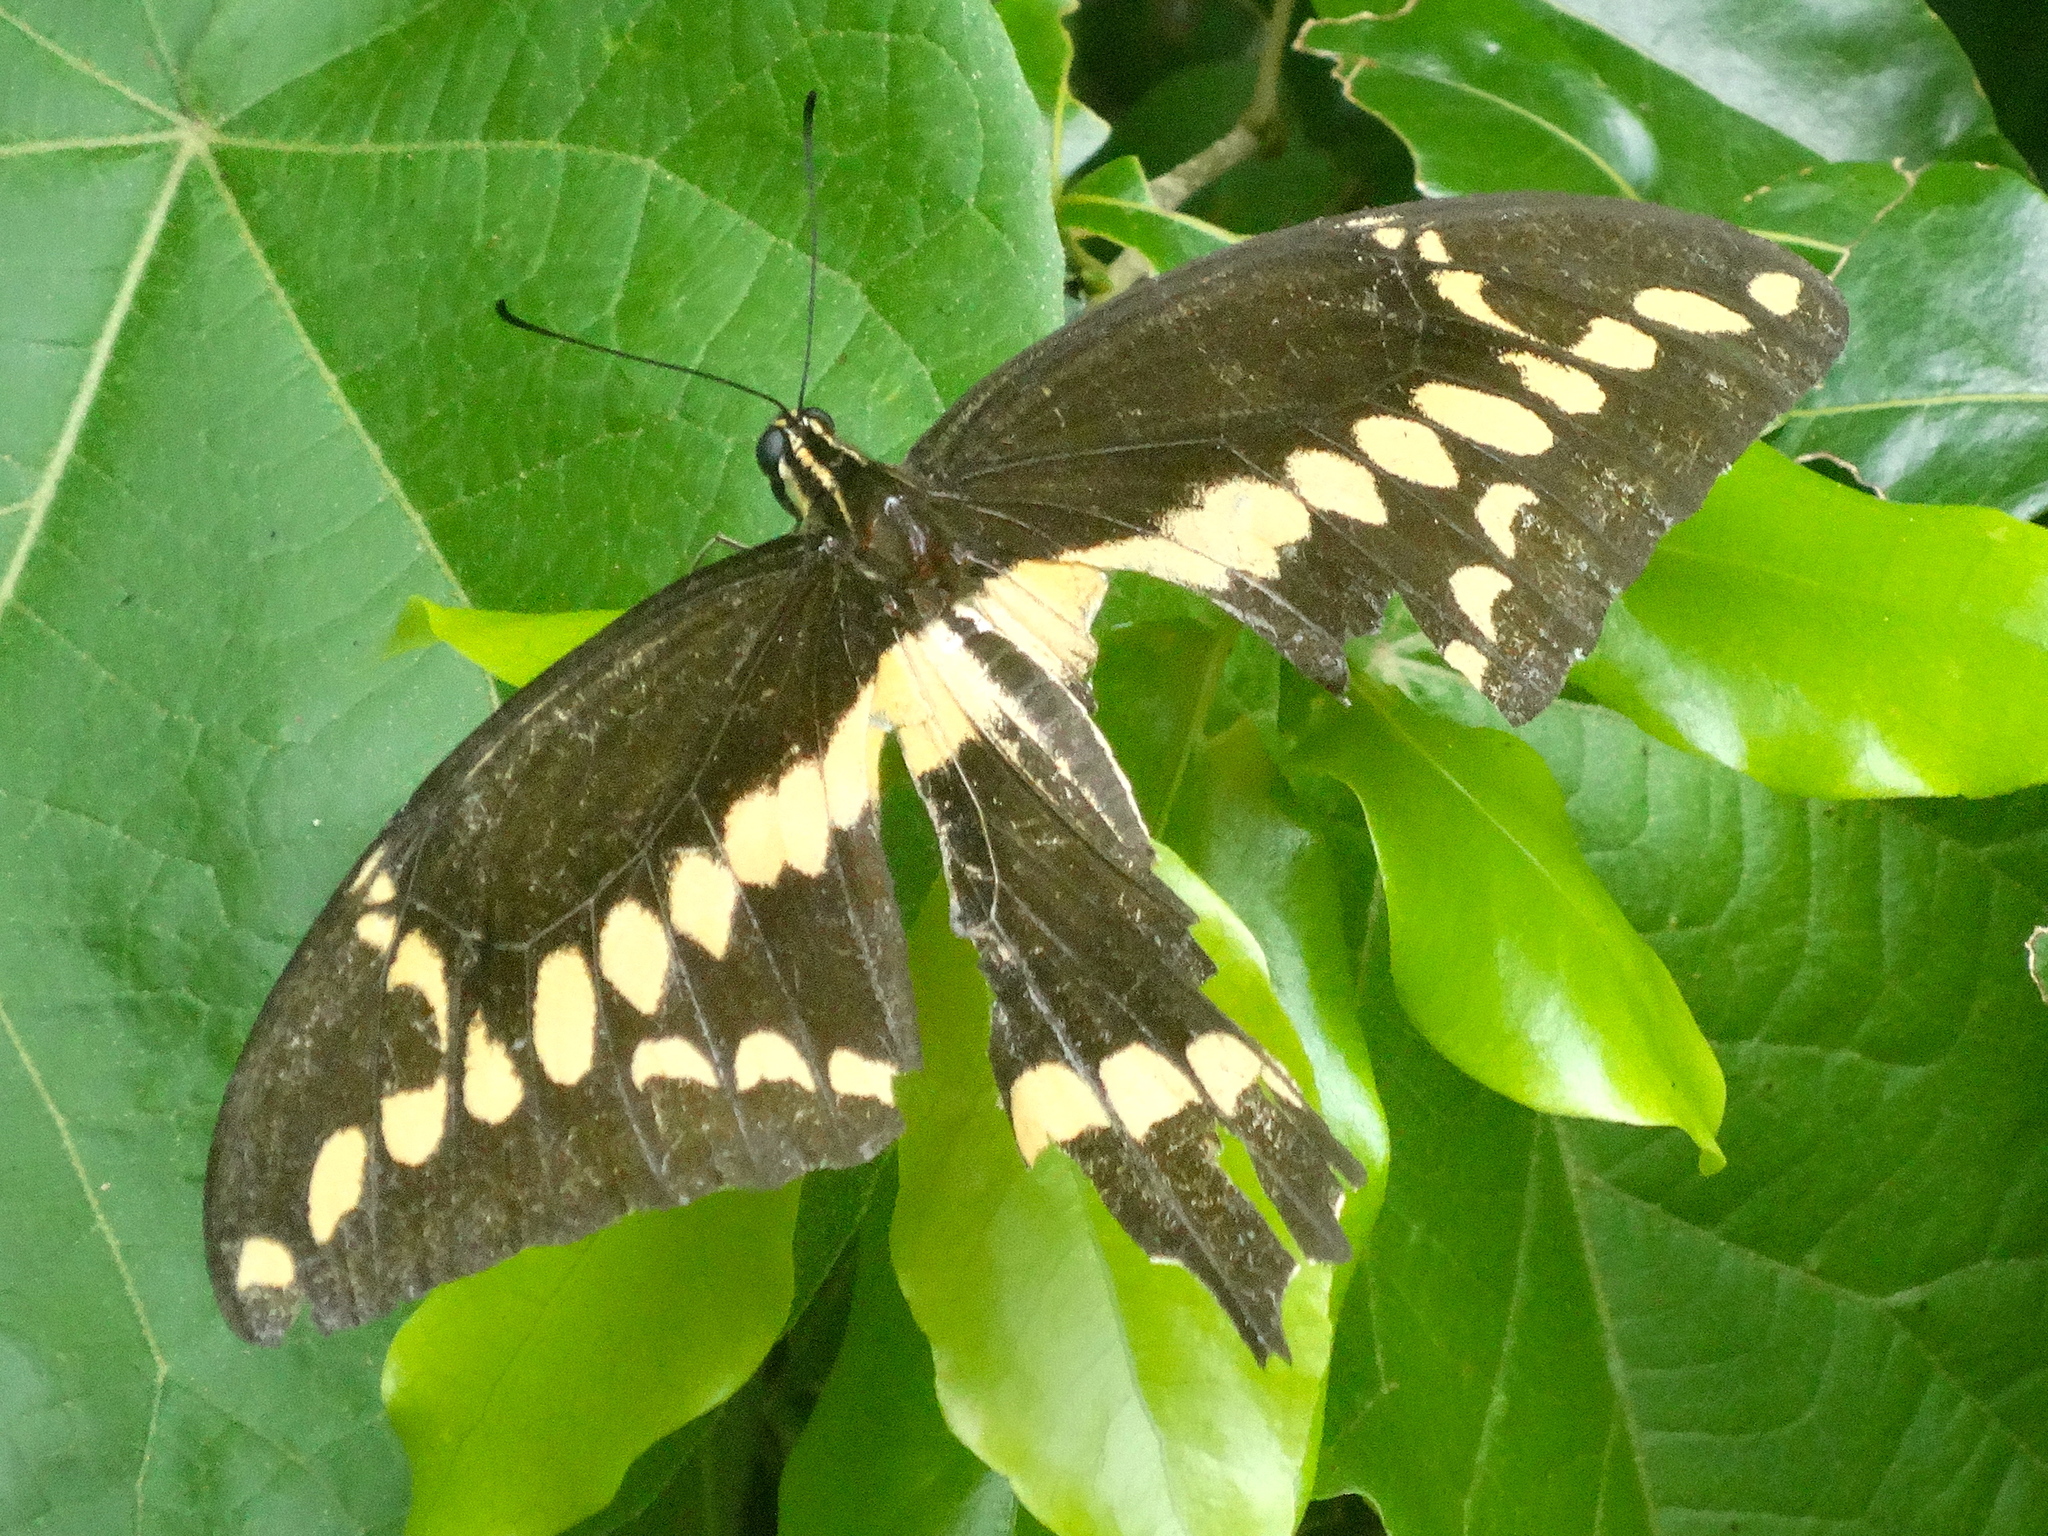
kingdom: Animalia
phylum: Arthropoda
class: Insecta
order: Lepidoptera
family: Papilionidae
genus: Papilio
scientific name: Papilio rumiko
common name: Western giant swallowtail
